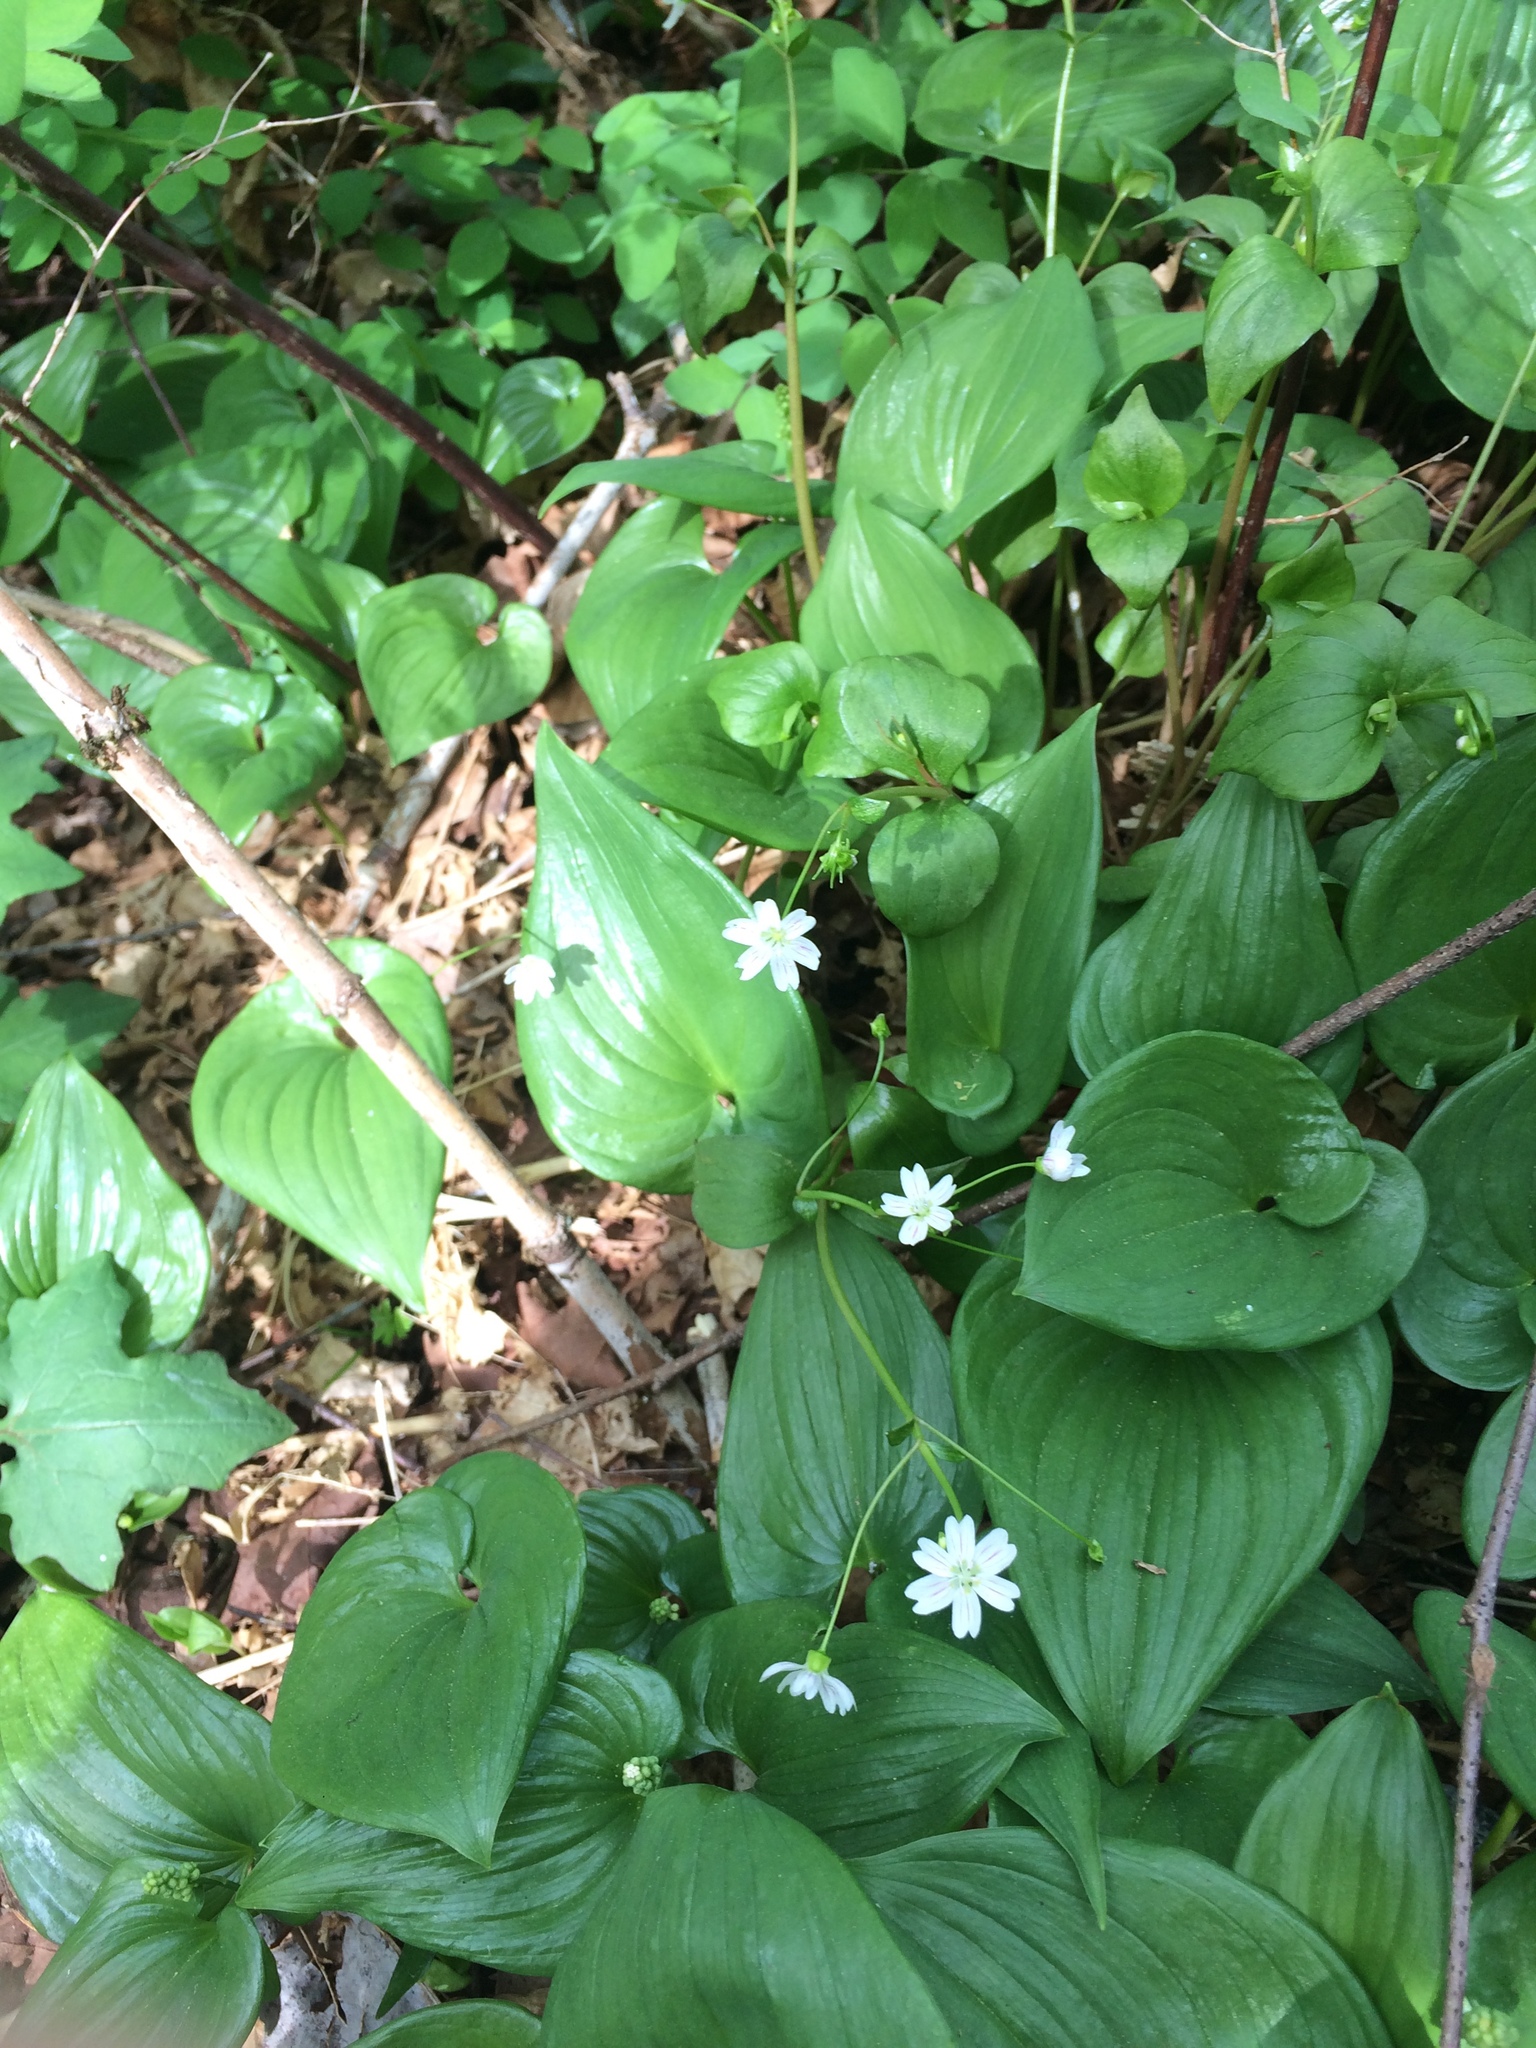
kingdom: Plantae
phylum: Tracheophyta
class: Magnoliopsida
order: Caryophyllales
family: Montiaceae
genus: Claytonia
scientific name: Claytonia sibirica
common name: Pink purslane
